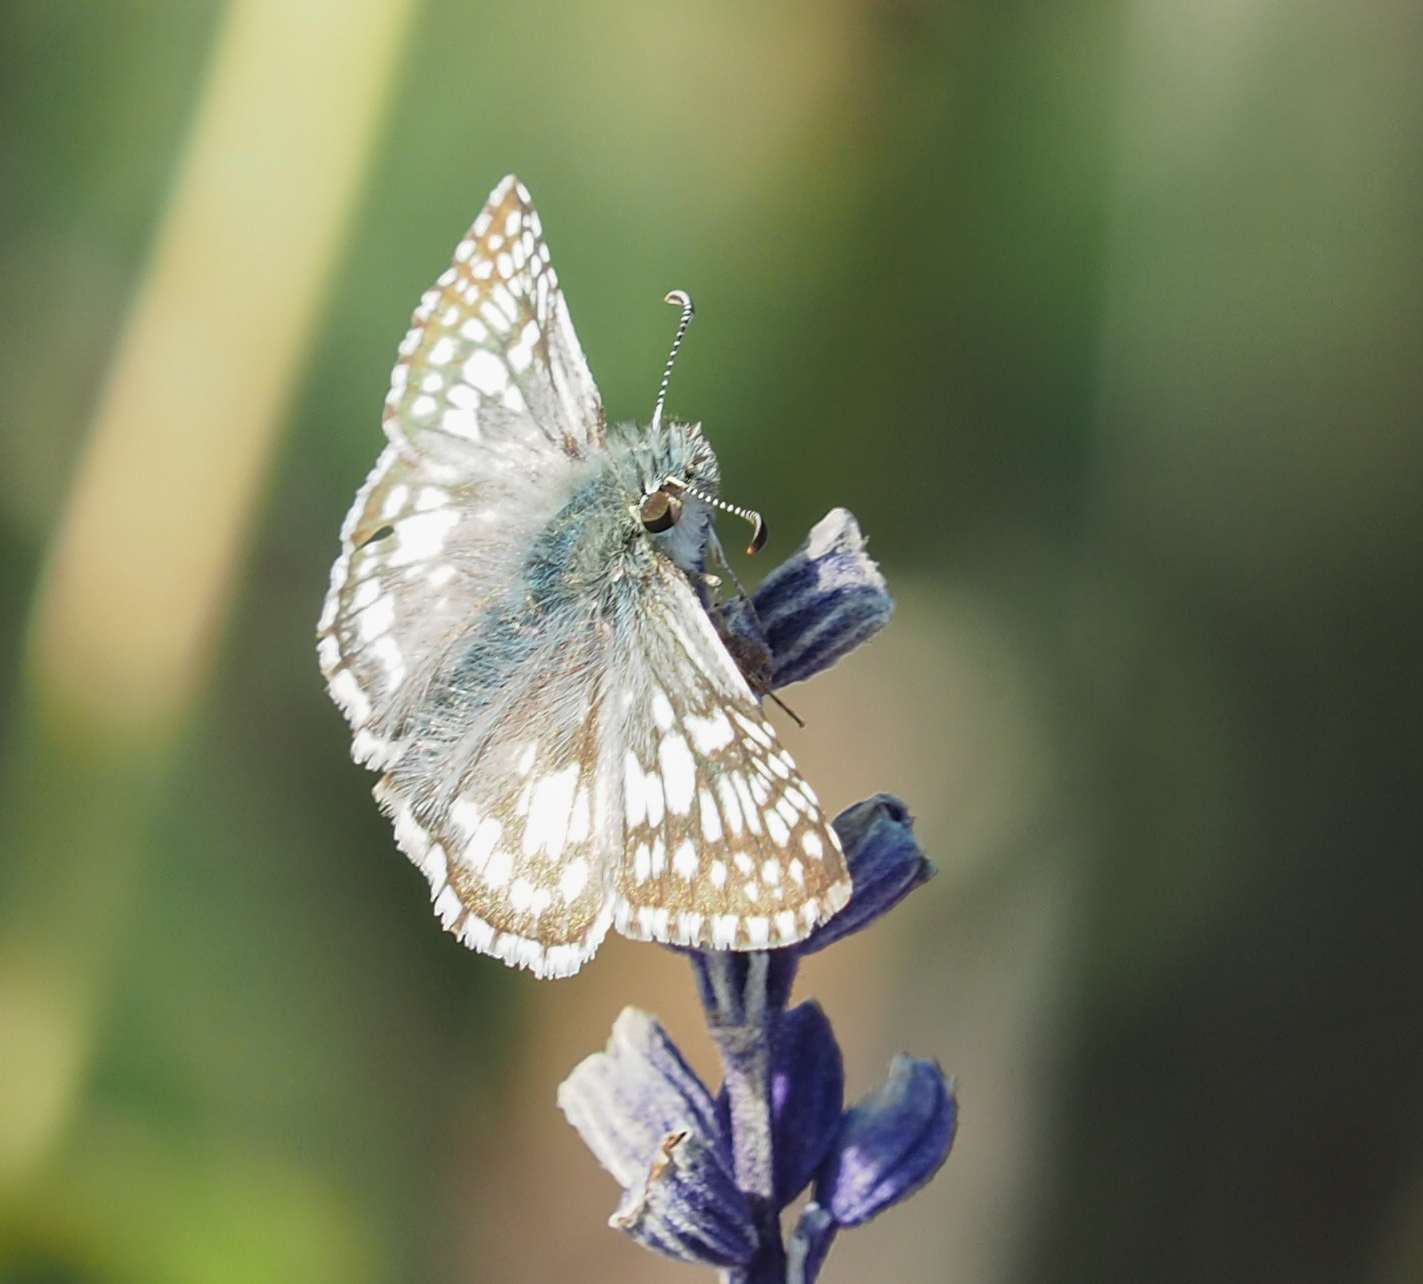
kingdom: Animalia
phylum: Arthropoda
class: Insecta
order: Lepidoptera
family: Hesperiidae
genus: Burnsius
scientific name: Burnsius communis
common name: Common checkered-skipper
